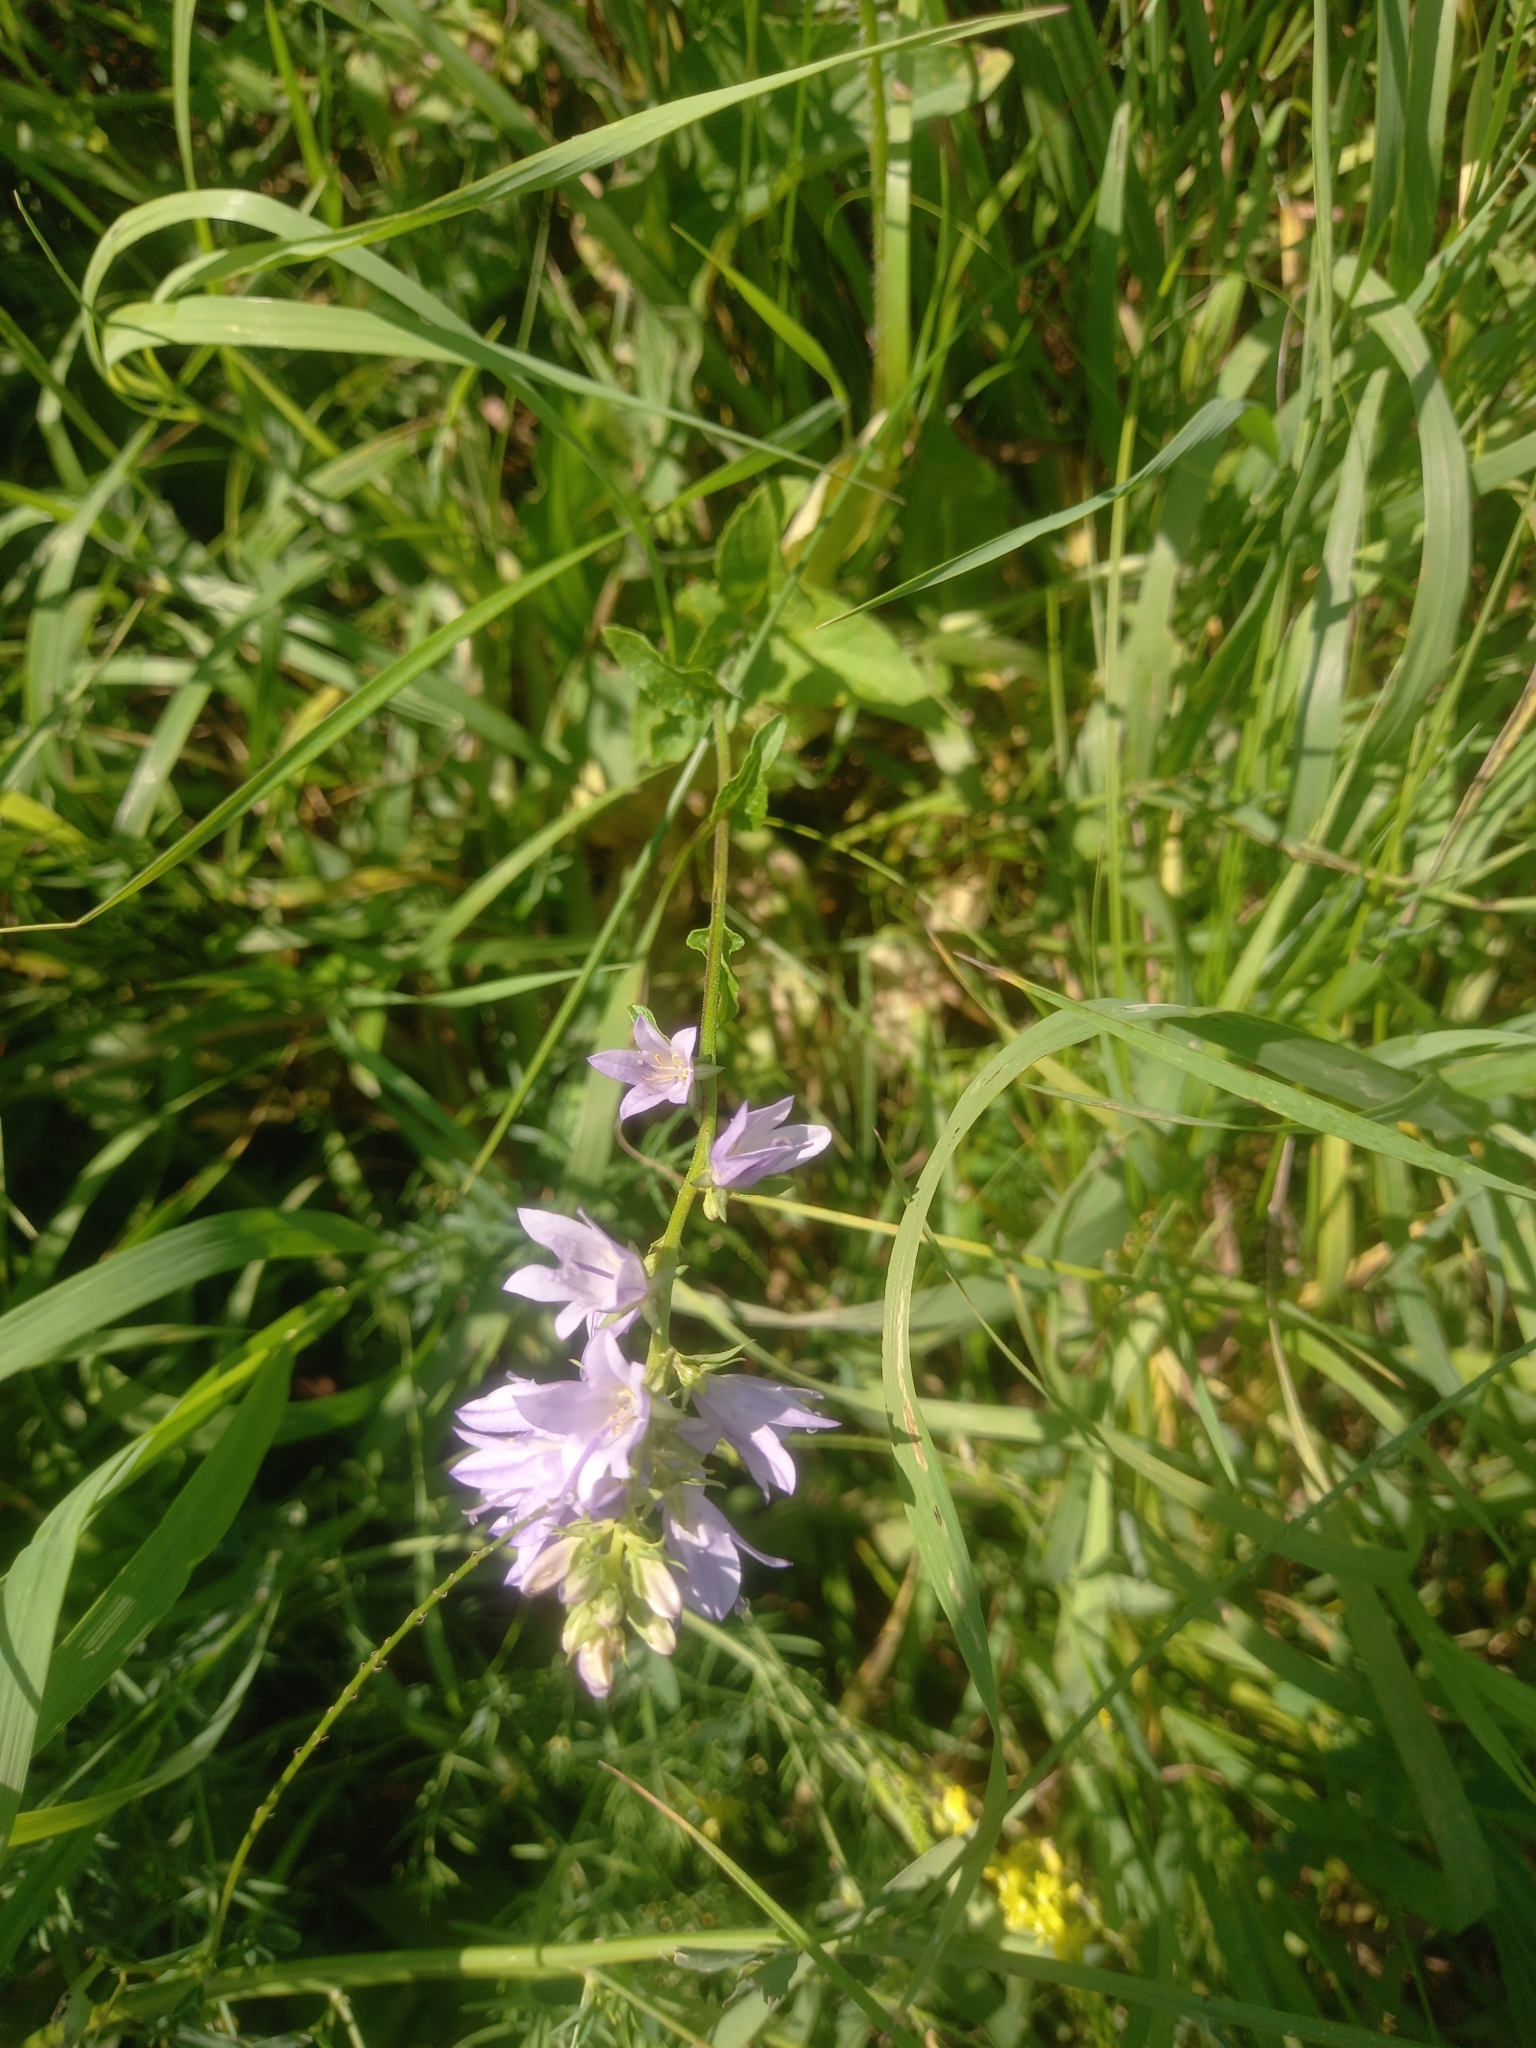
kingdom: Plantae
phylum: Tracheophyta
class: Magnoliopsida
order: Asterales
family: Campanulaceae
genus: Campanula
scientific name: Campanula bononiensis
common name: Pale bellflower
